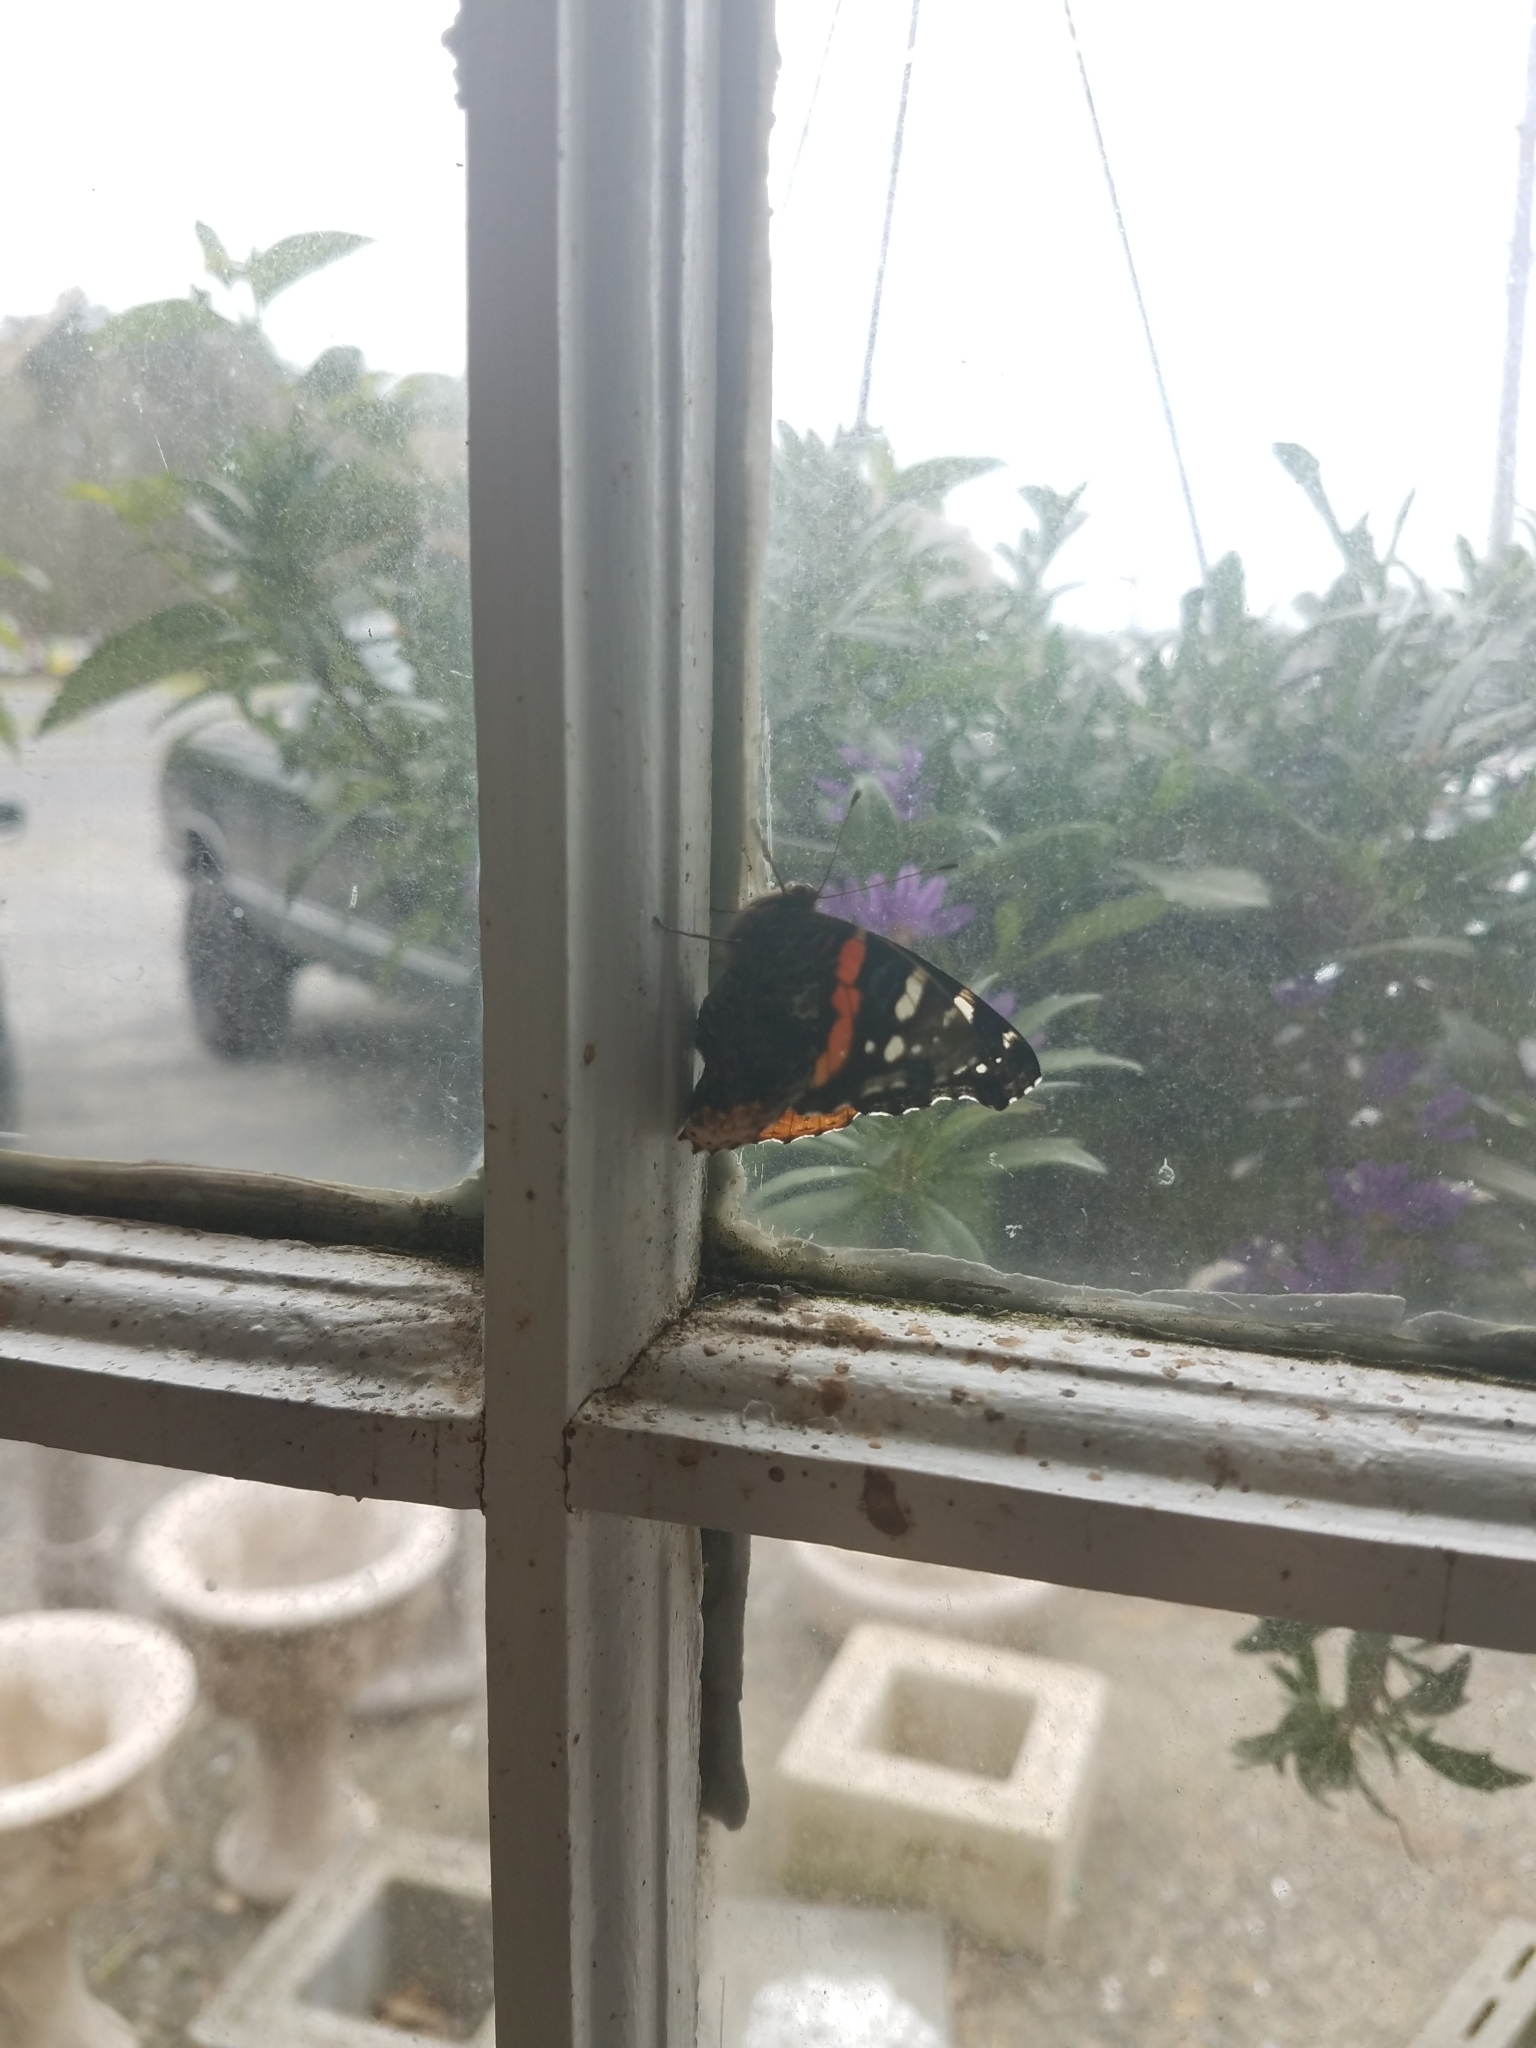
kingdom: Animalia
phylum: Arthropoda
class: Insecta
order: Lepidoptera
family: Nymphalidae
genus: Vanessa
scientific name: Vanessa atalanta
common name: Red admiral
